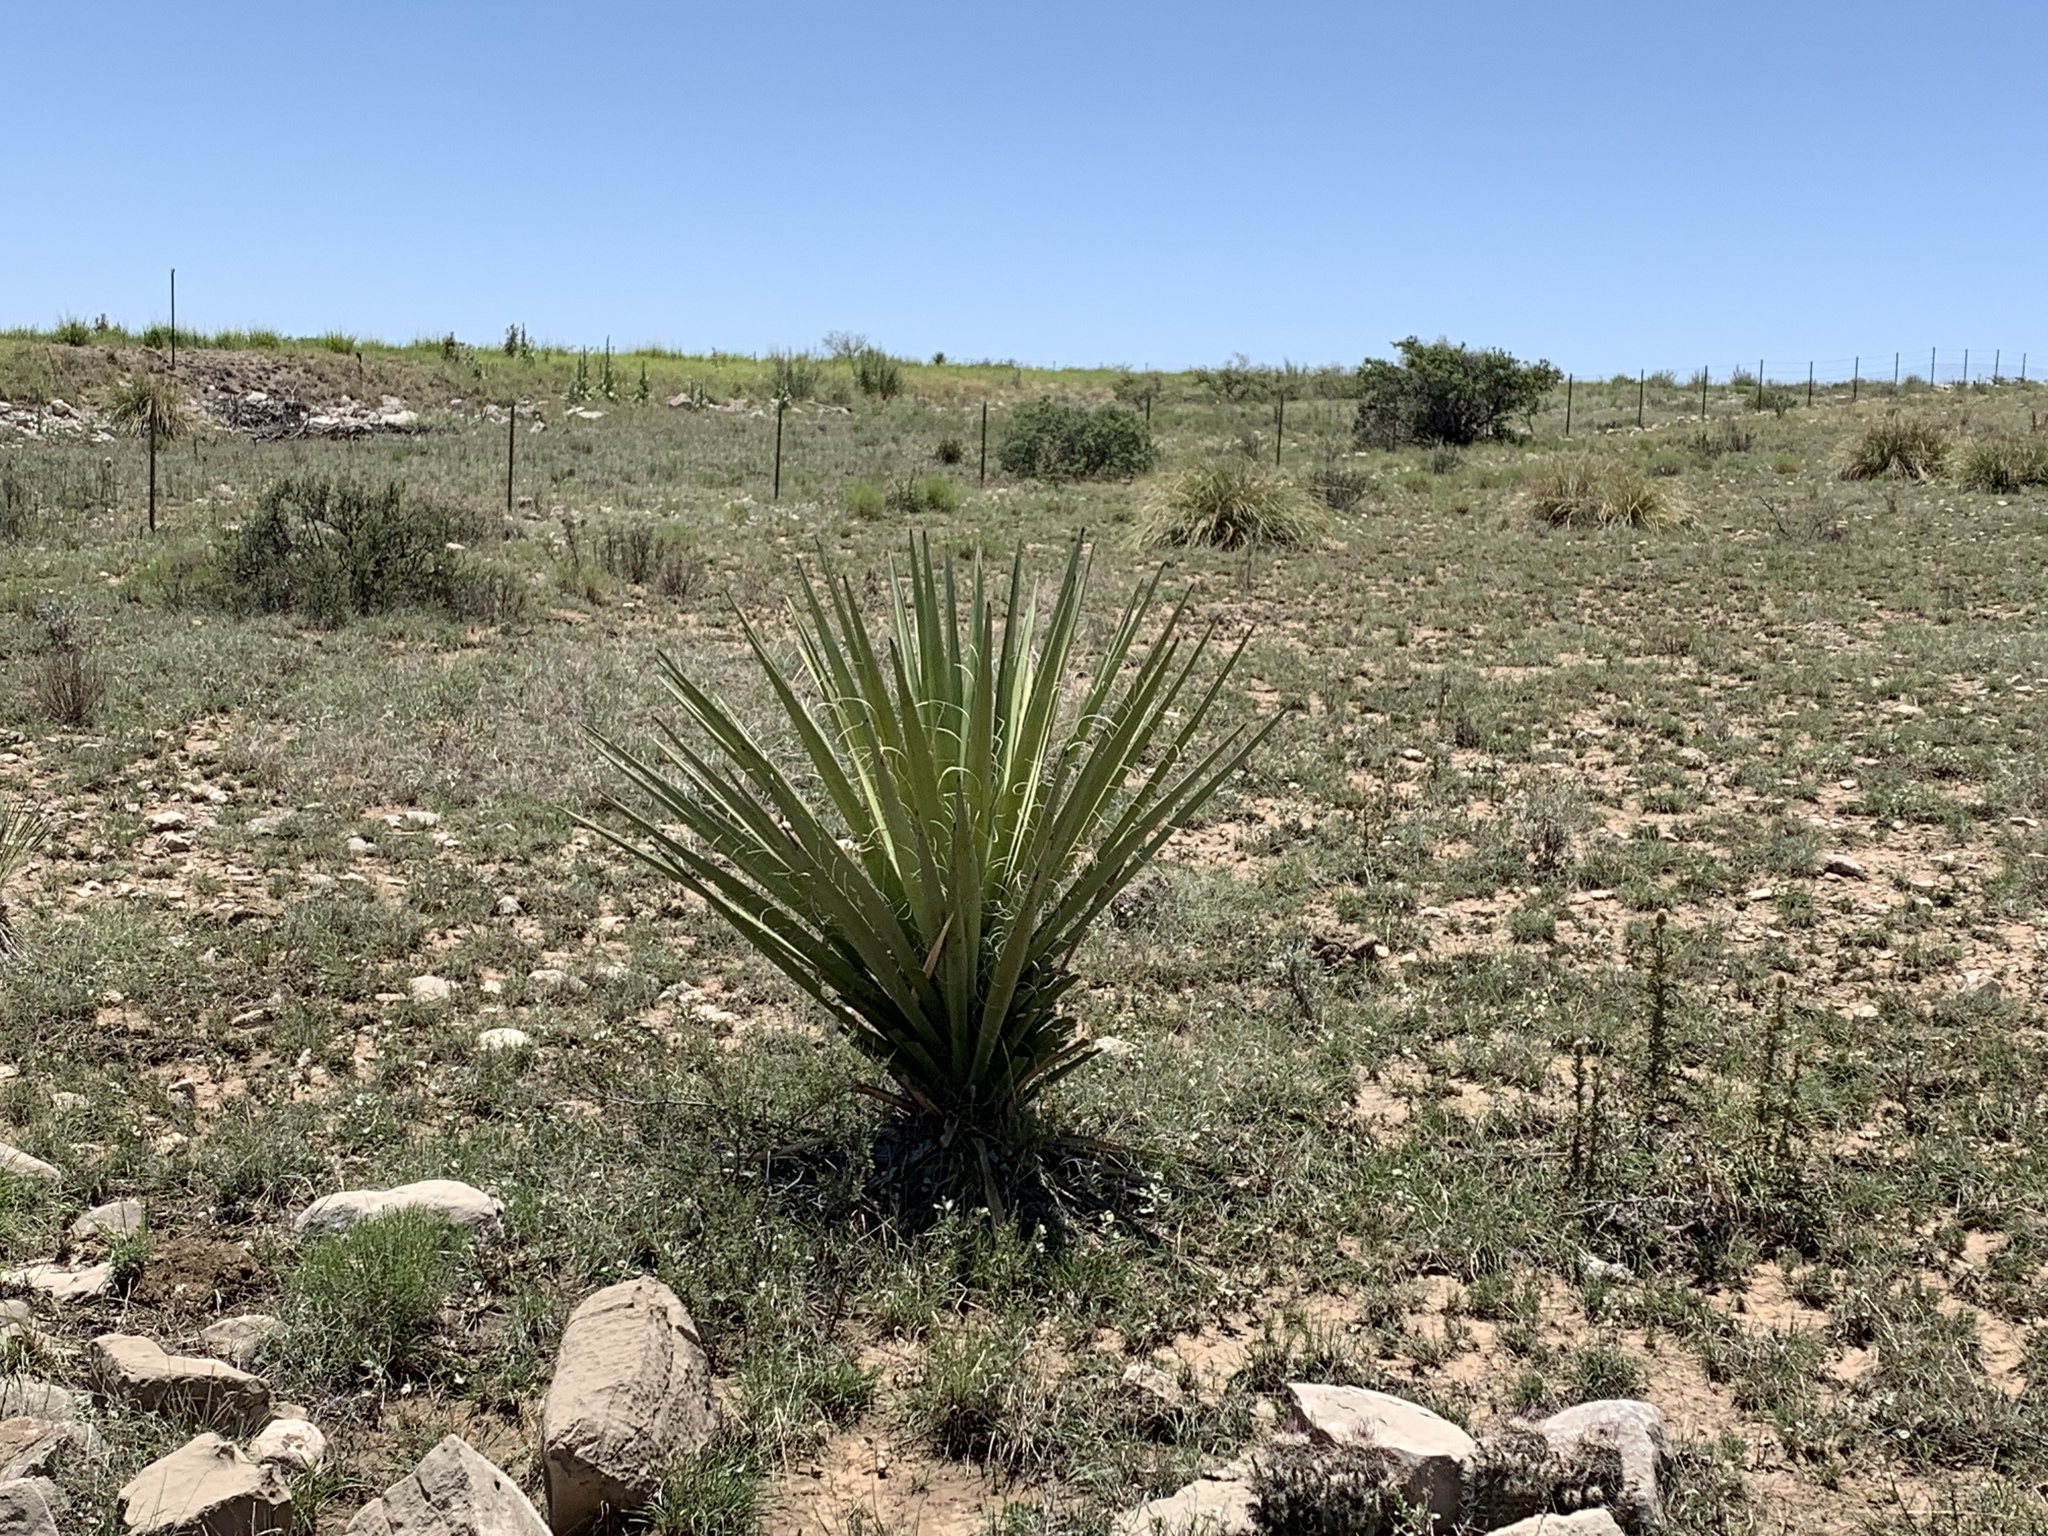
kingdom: Plantae
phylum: Tracheophyta
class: Liliopsida
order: Asparagales
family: Asparagaceae
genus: Yucca
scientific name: Yucca treculiana
